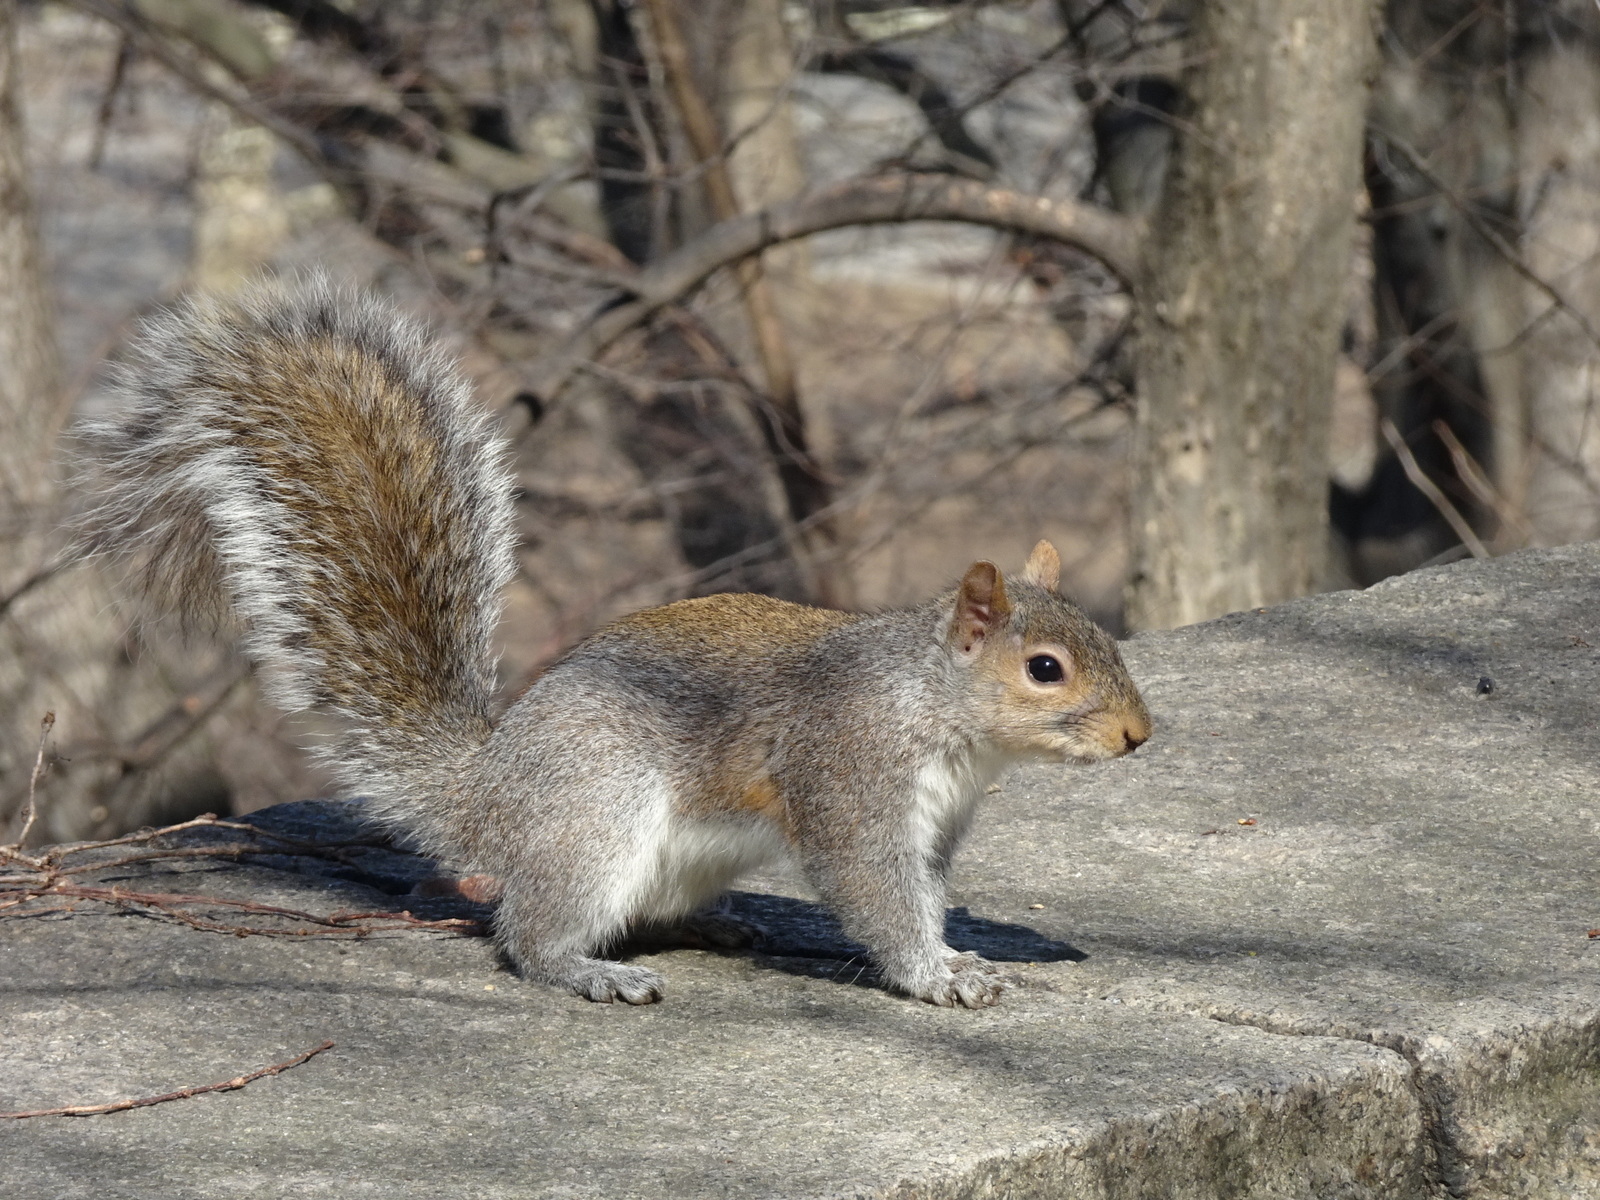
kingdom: Animalia
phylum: Chordata
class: Mammalia
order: Rodentia
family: Sciuridae
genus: Sciurus
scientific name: Sciurus carolinensis
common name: Eastern gray squirrel
